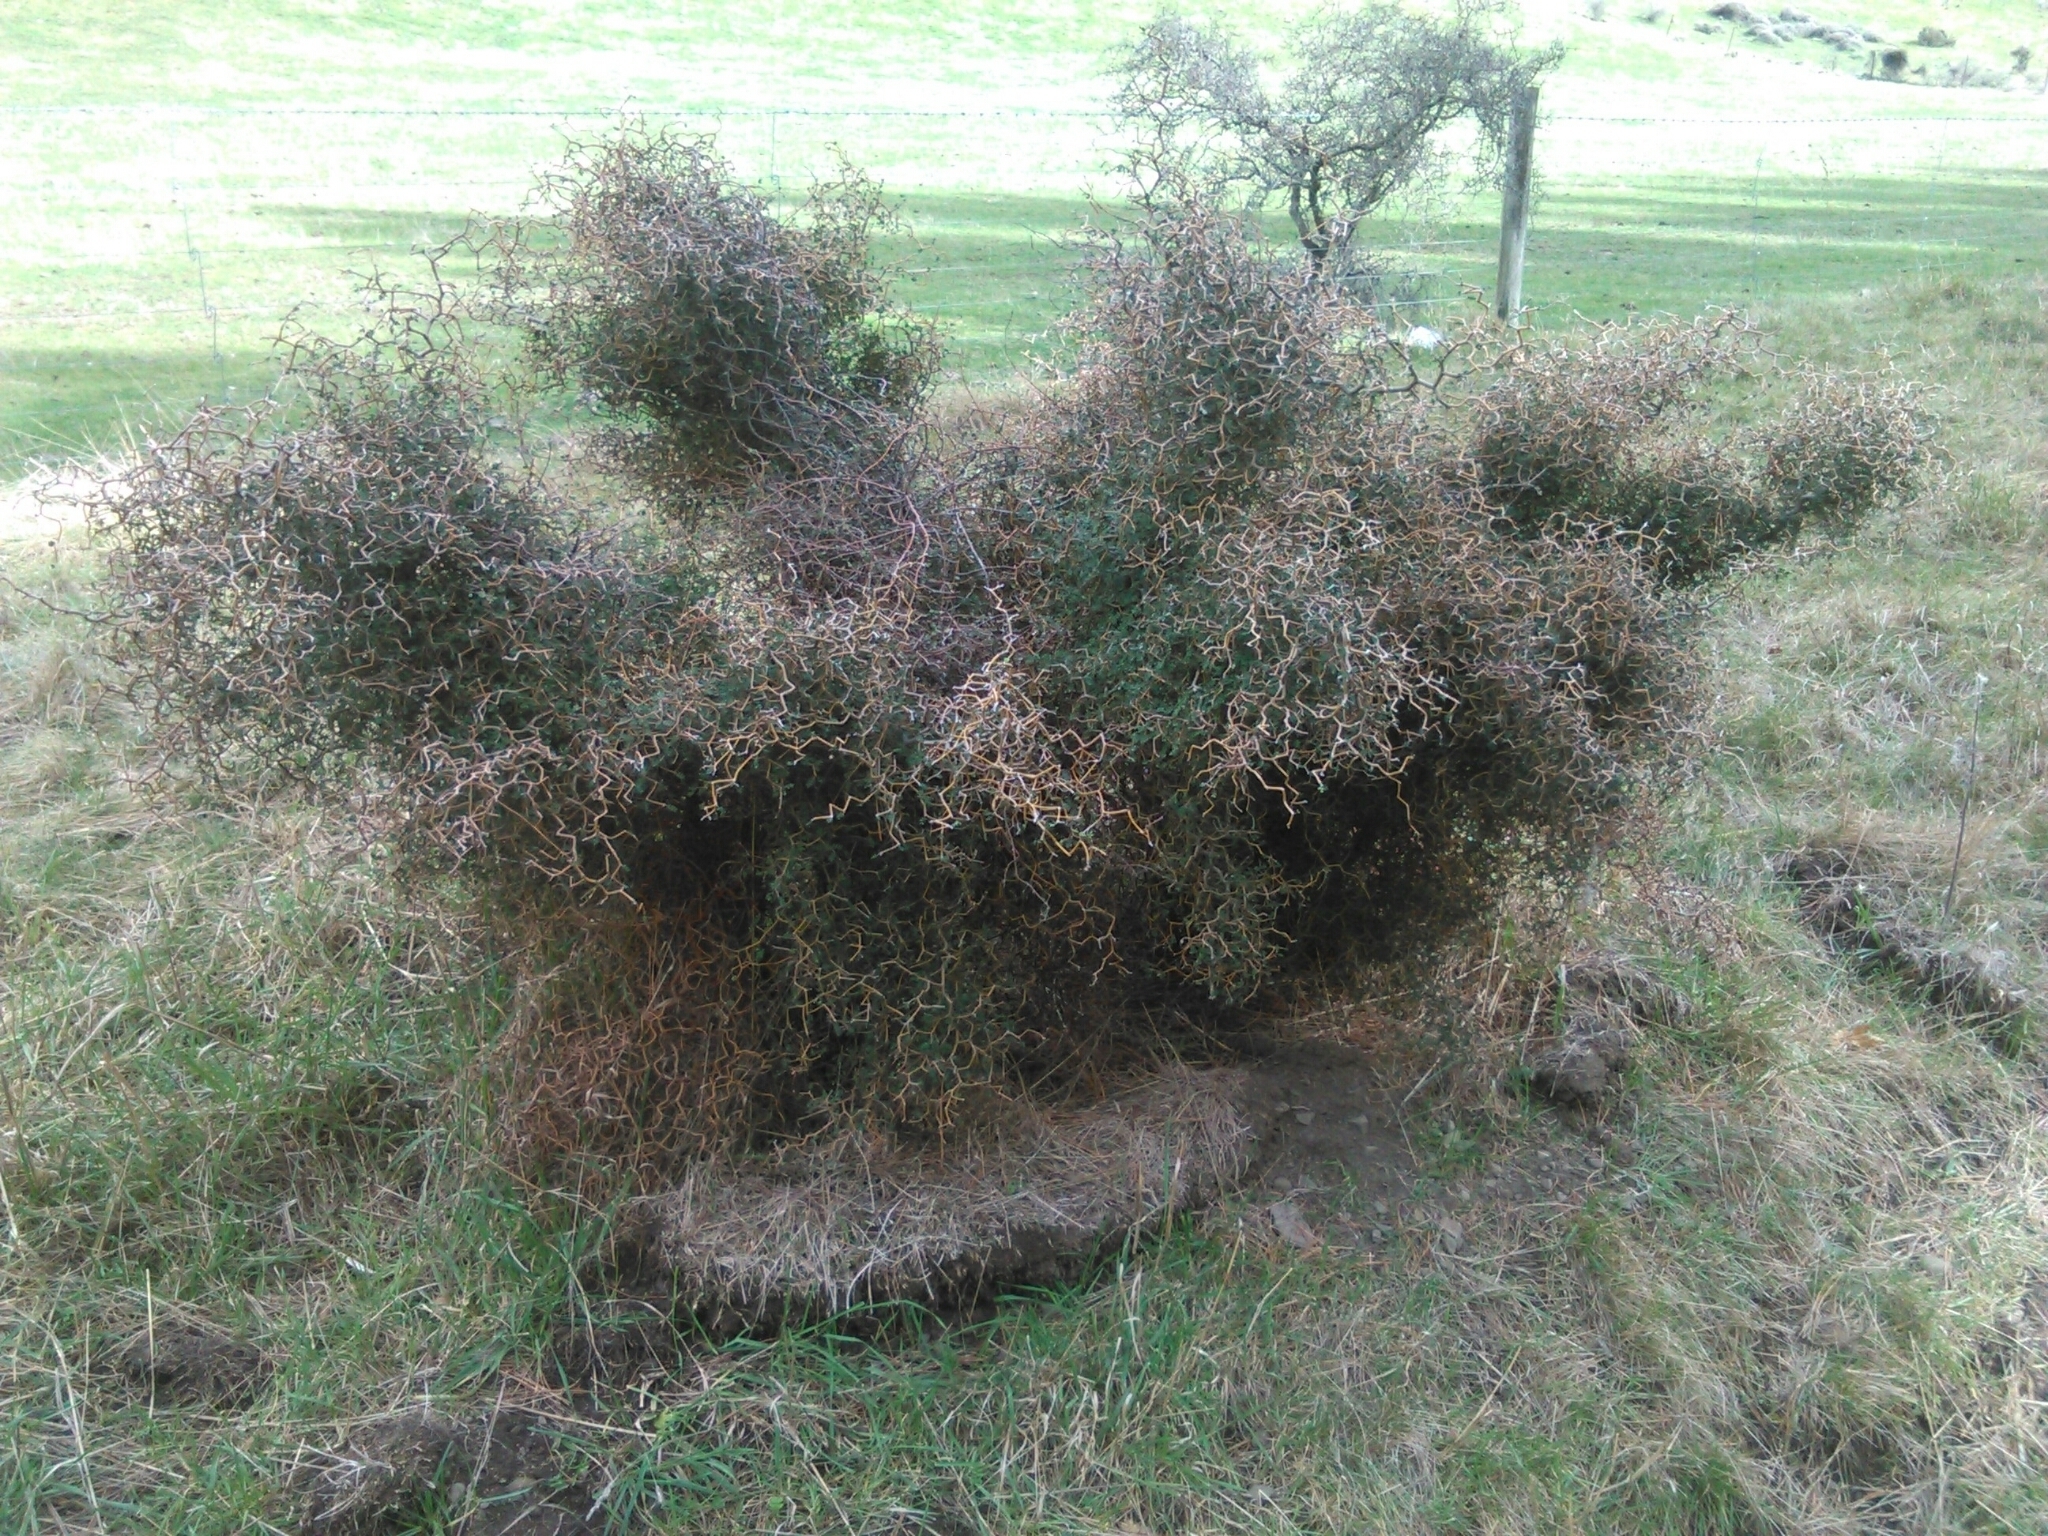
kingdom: Plantae
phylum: Tracheophyta
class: Magnoliopsida
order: Fabales
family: Fabaceae
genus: Sophora
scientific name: Sophora prostrata
